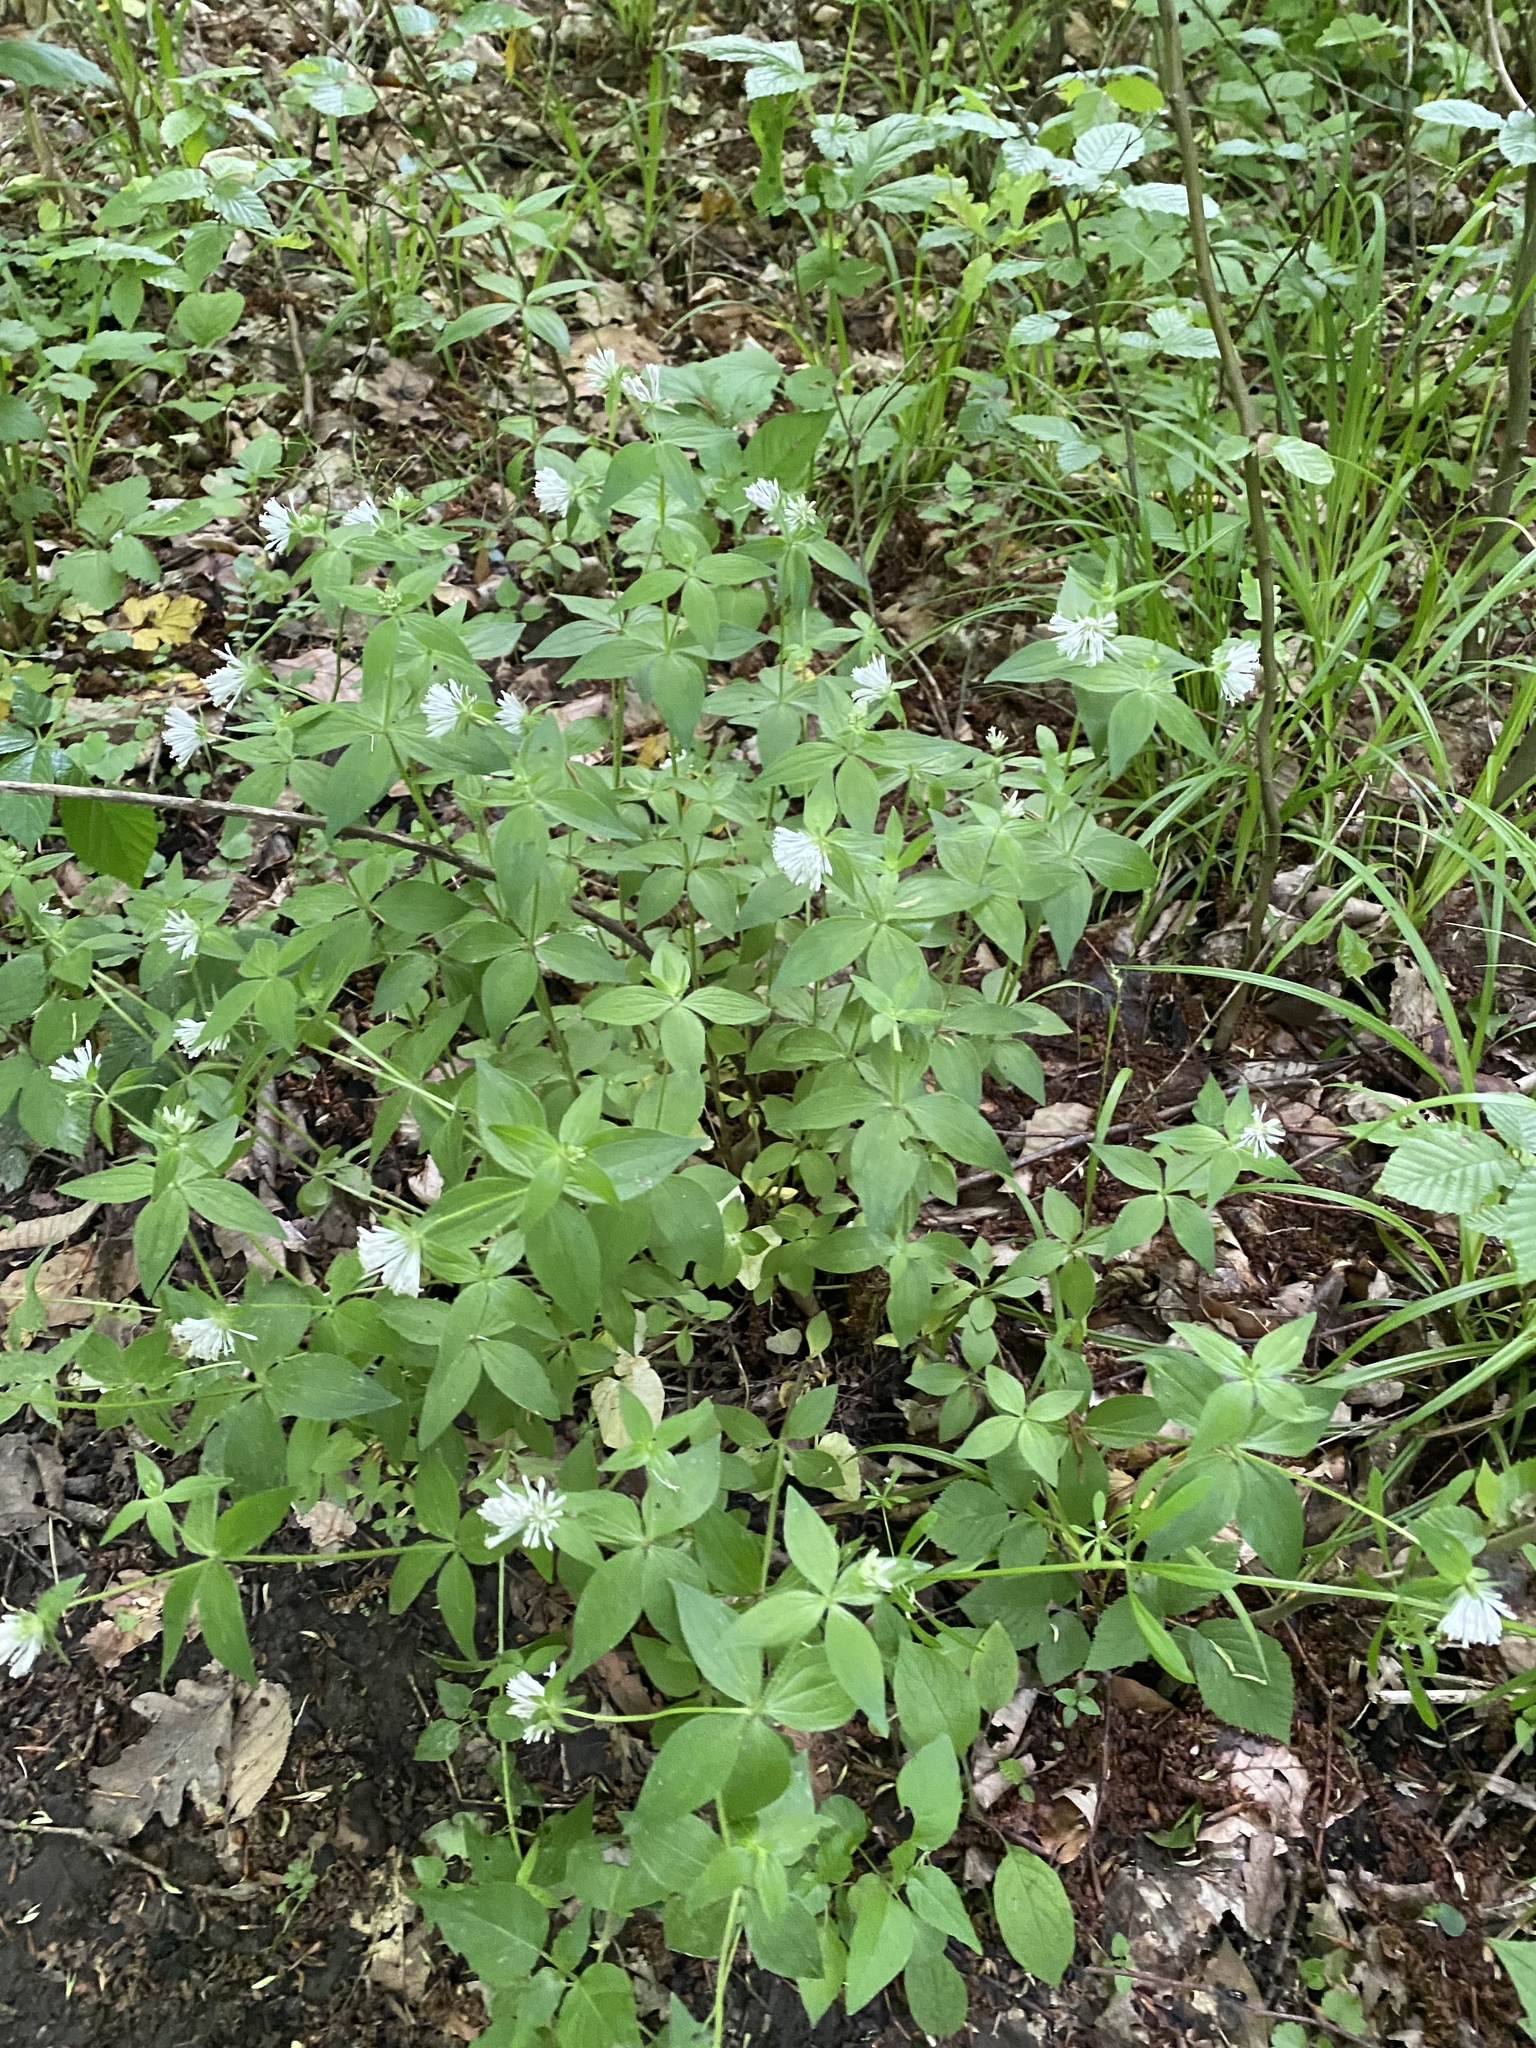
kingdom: Plantae
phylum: Tracheophyta
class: Magnoliopsida
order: Gentianales
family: Rubiaceae
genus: Asperula
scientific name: Asperula taurina
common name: Pink woodruff
